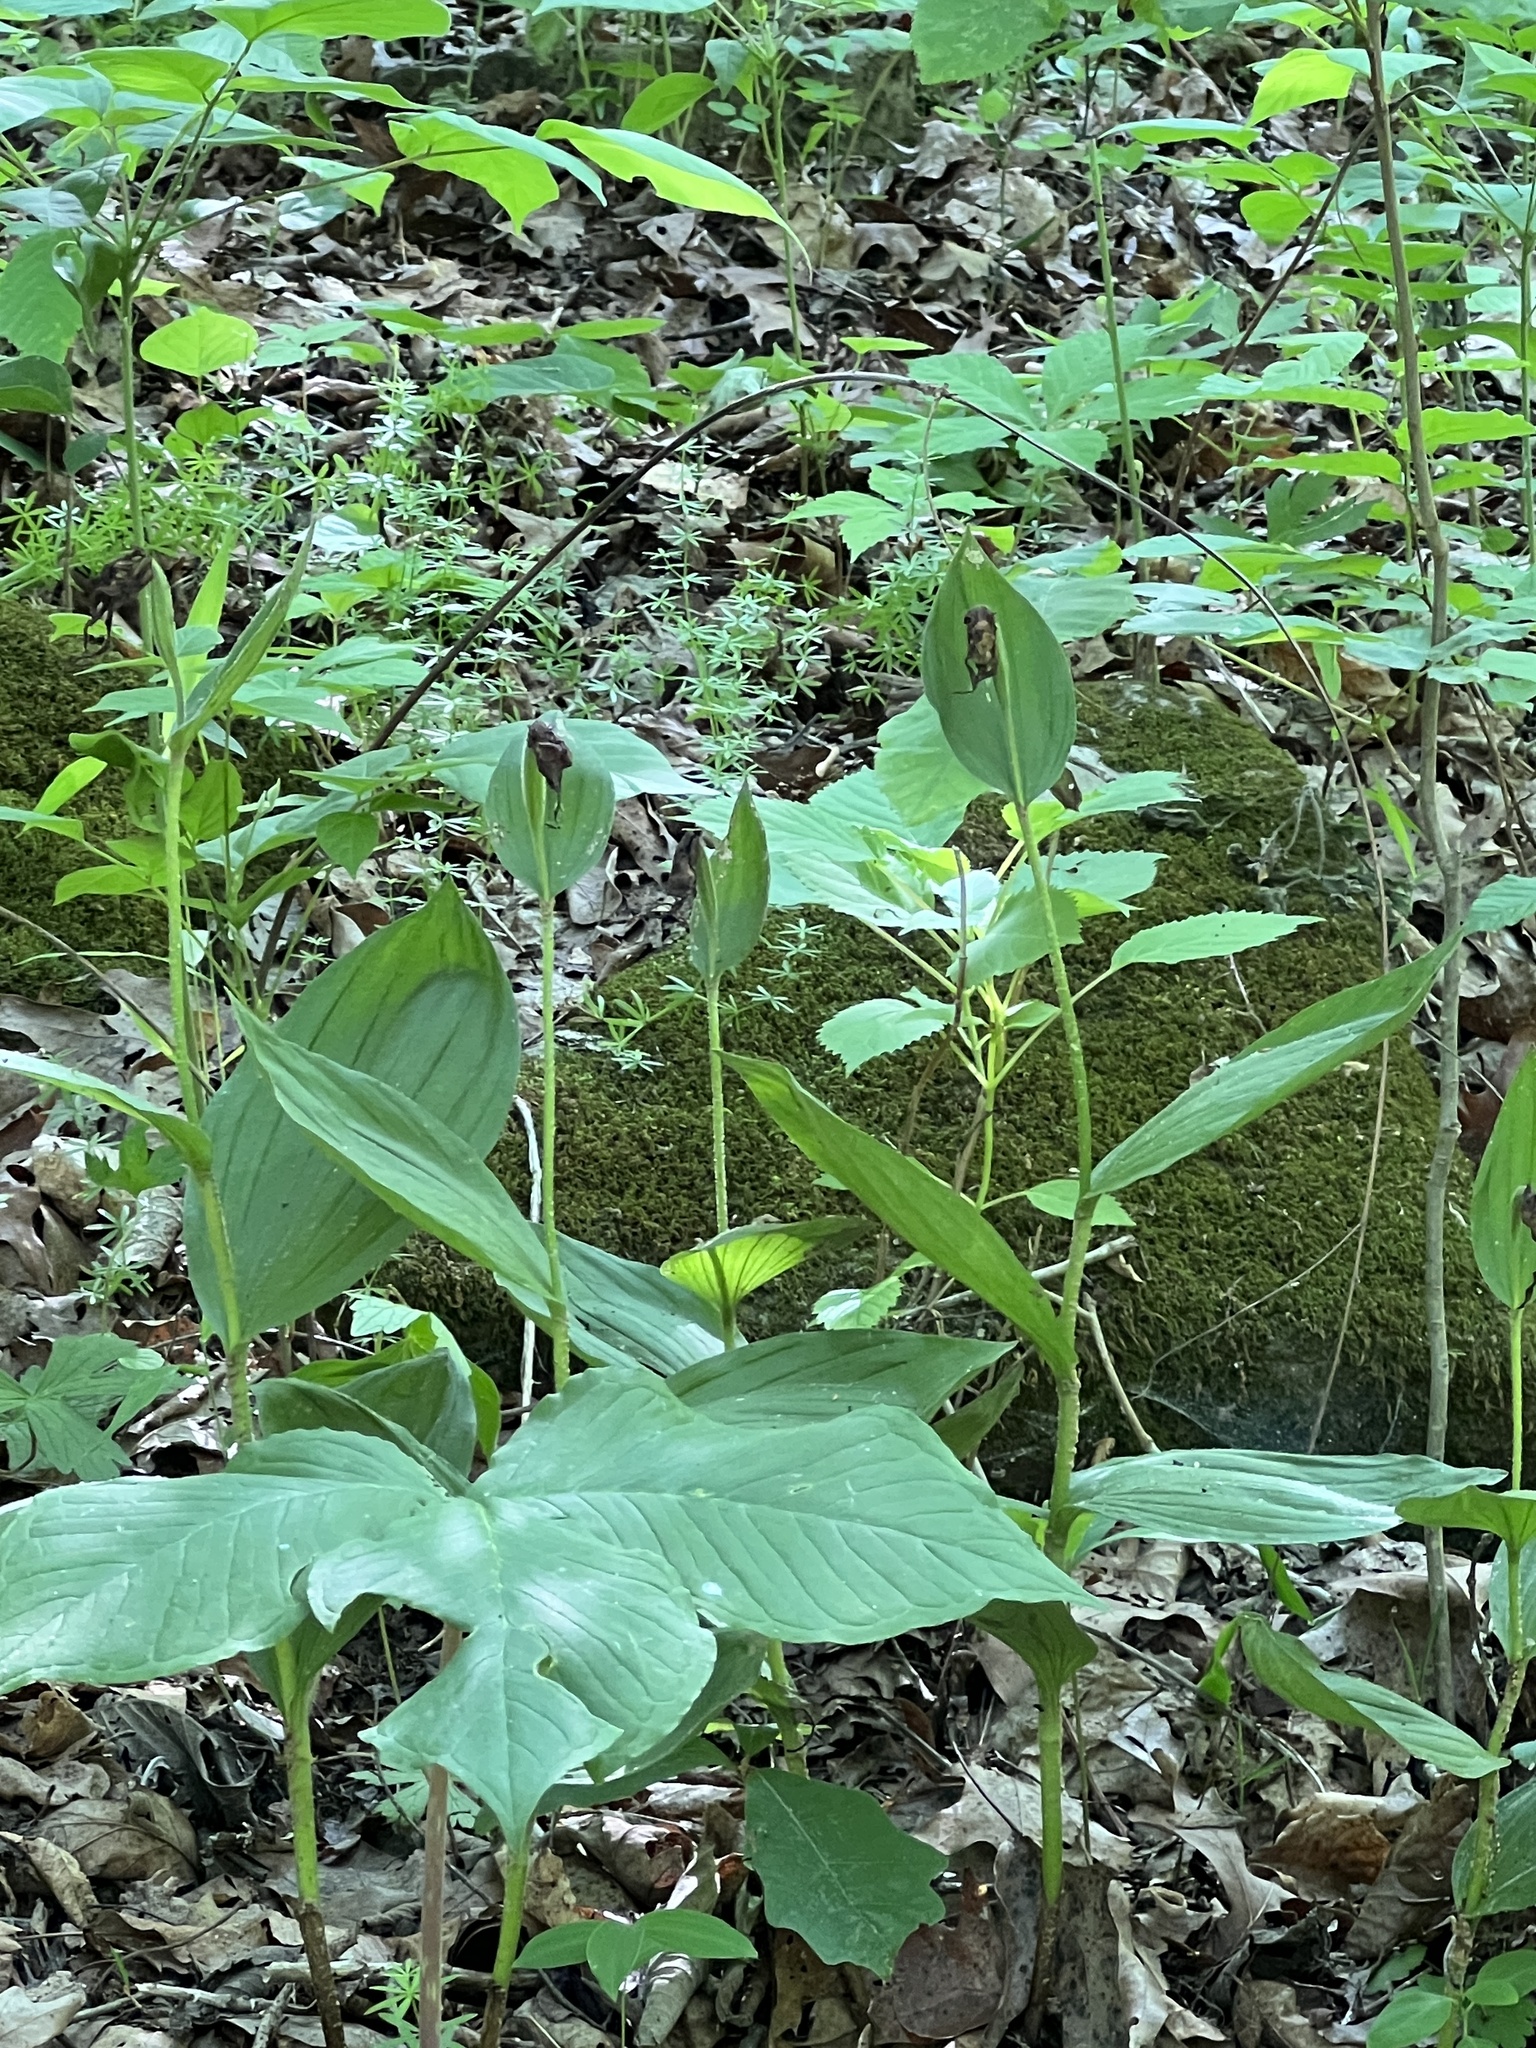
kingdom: Plantae
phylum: Tracheophyta
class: Liliopsida
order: Asparagales
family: Orchidaceae
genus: Cypripedium
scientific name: Cypripedium parviflorum
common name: American yellow lady's-slipper
